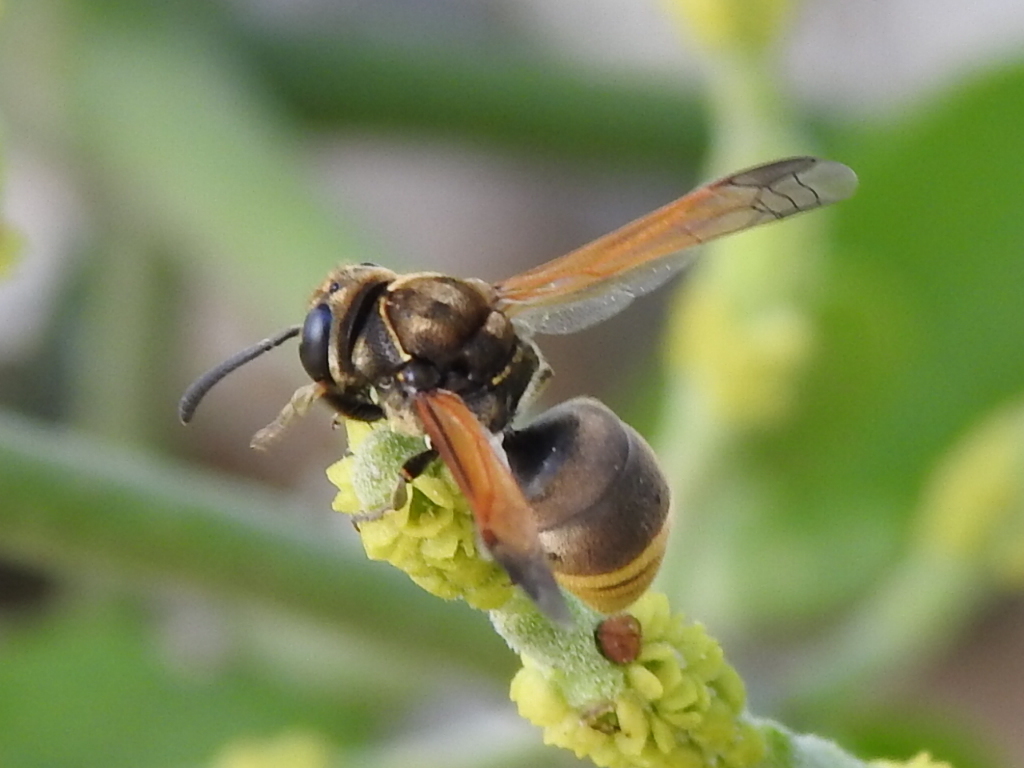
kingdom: Animalia
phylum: Arthropoda
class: Insecta
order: Hymenoptera
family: Eumenidae
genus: Pachodynerus
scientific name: Pachodynerus nasidens
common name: Key hole wasp
